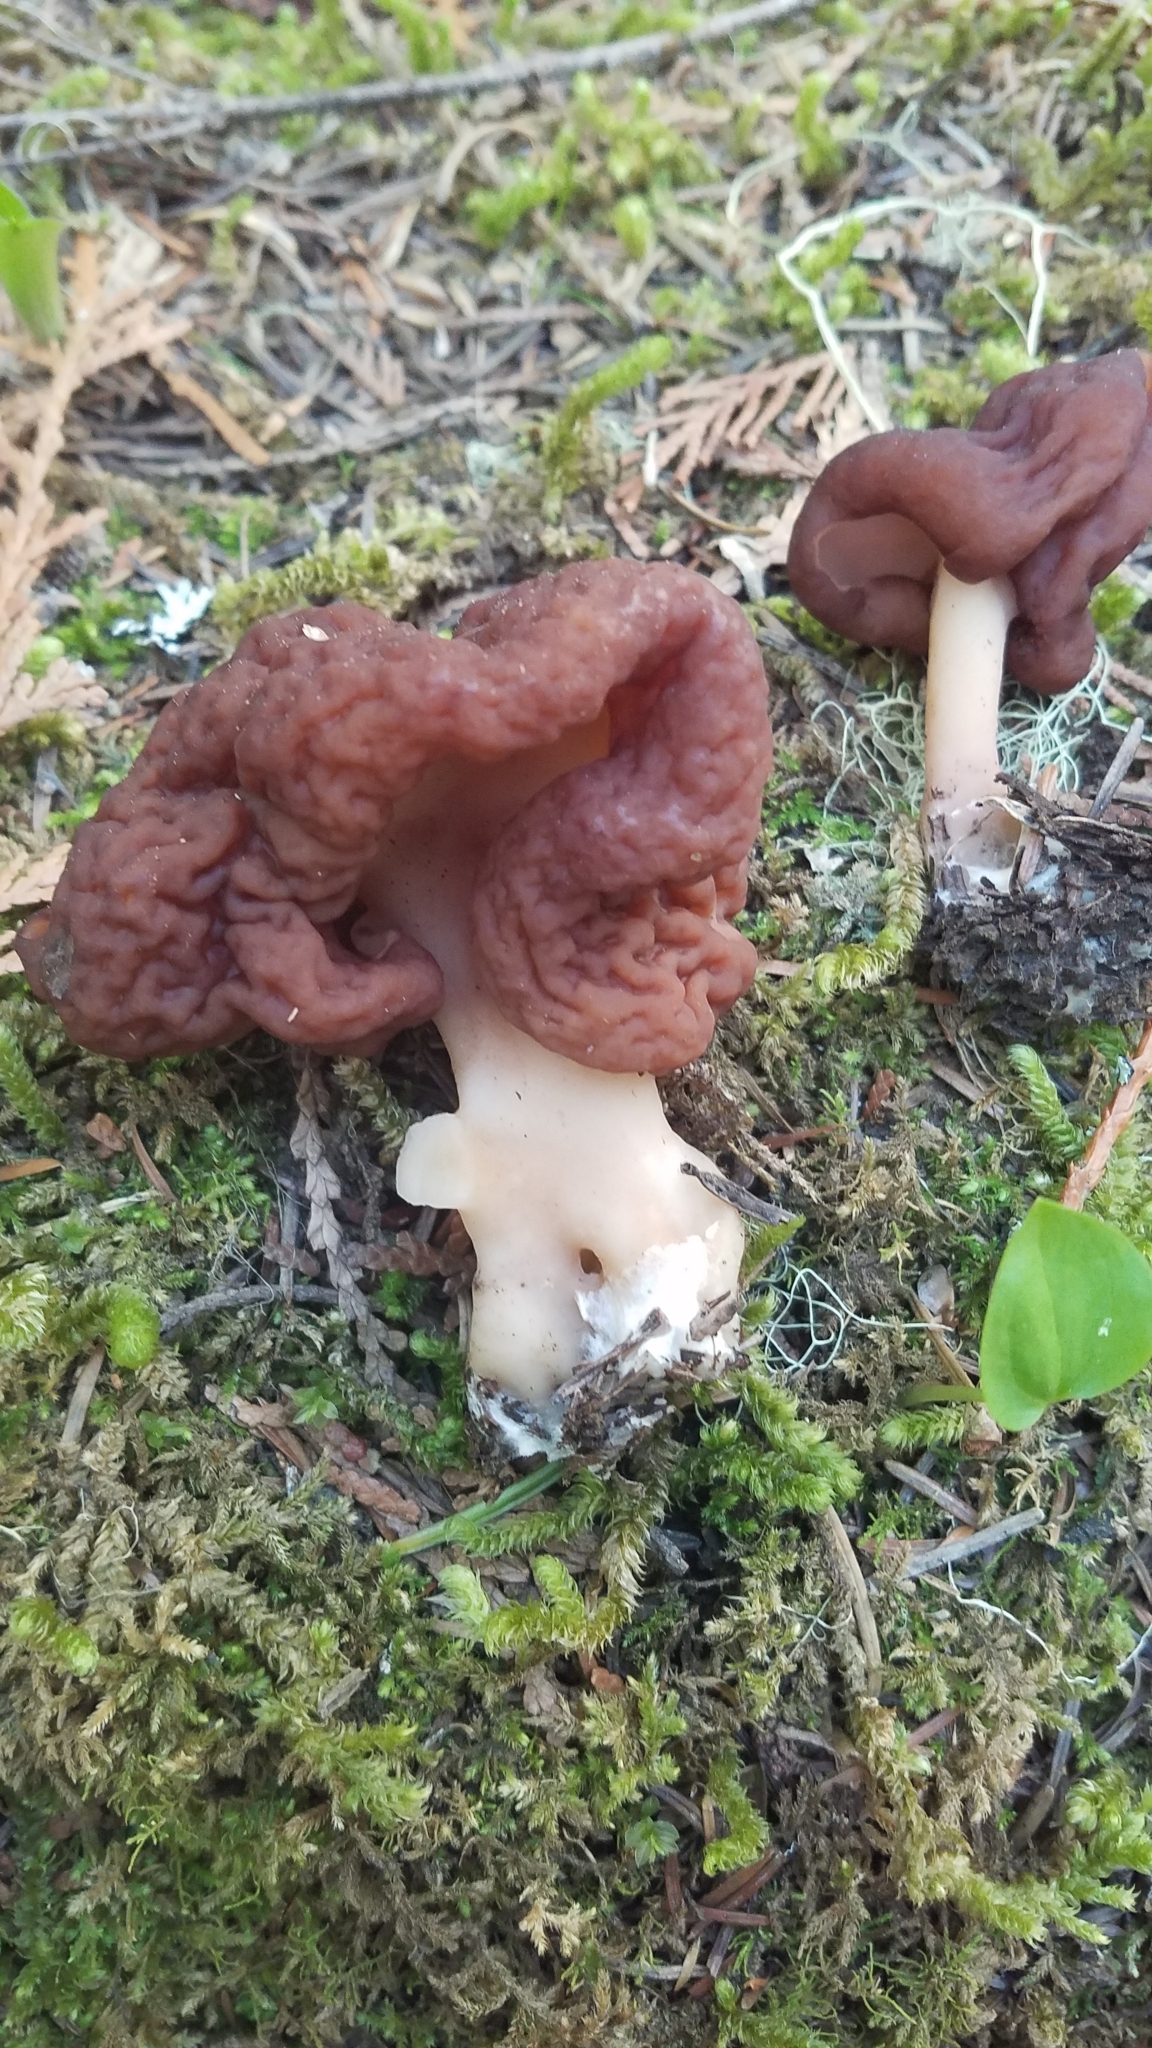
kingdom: Fungi
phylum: Ascomycota
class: Pezizomycetes
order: Pezizales
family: Discinaceae
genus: Gyromitra
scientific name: Gyromitra esculenta
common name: False morel
